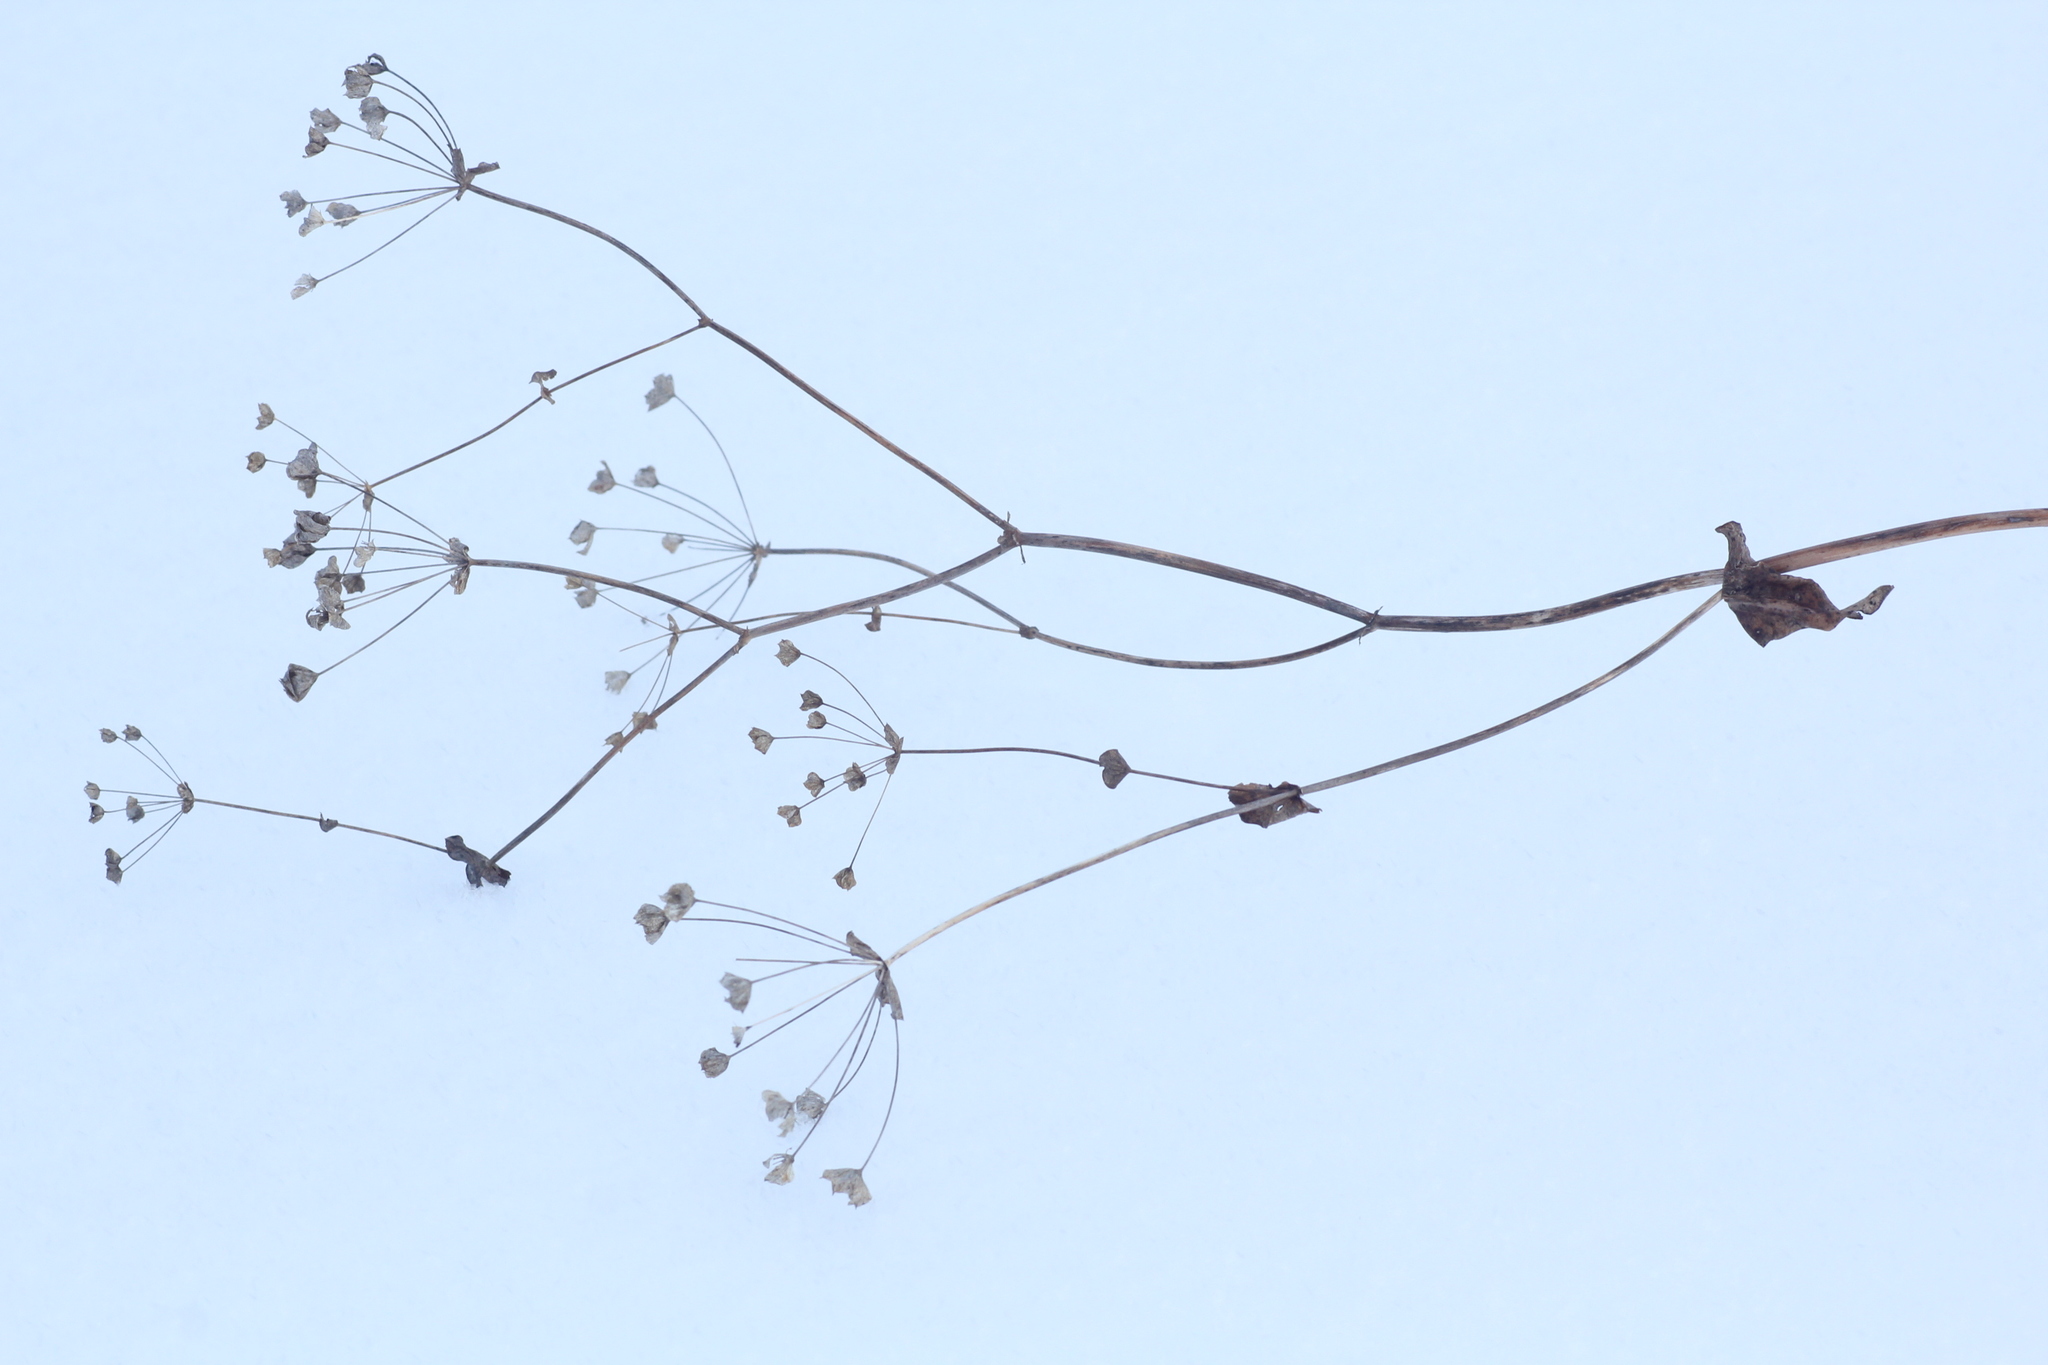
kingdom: Plantae
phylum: Tracheophyta
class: Magnoliopsida
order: Apiales
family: Apiaceae
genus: Bupleurum
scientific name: Bupleurum aureum
